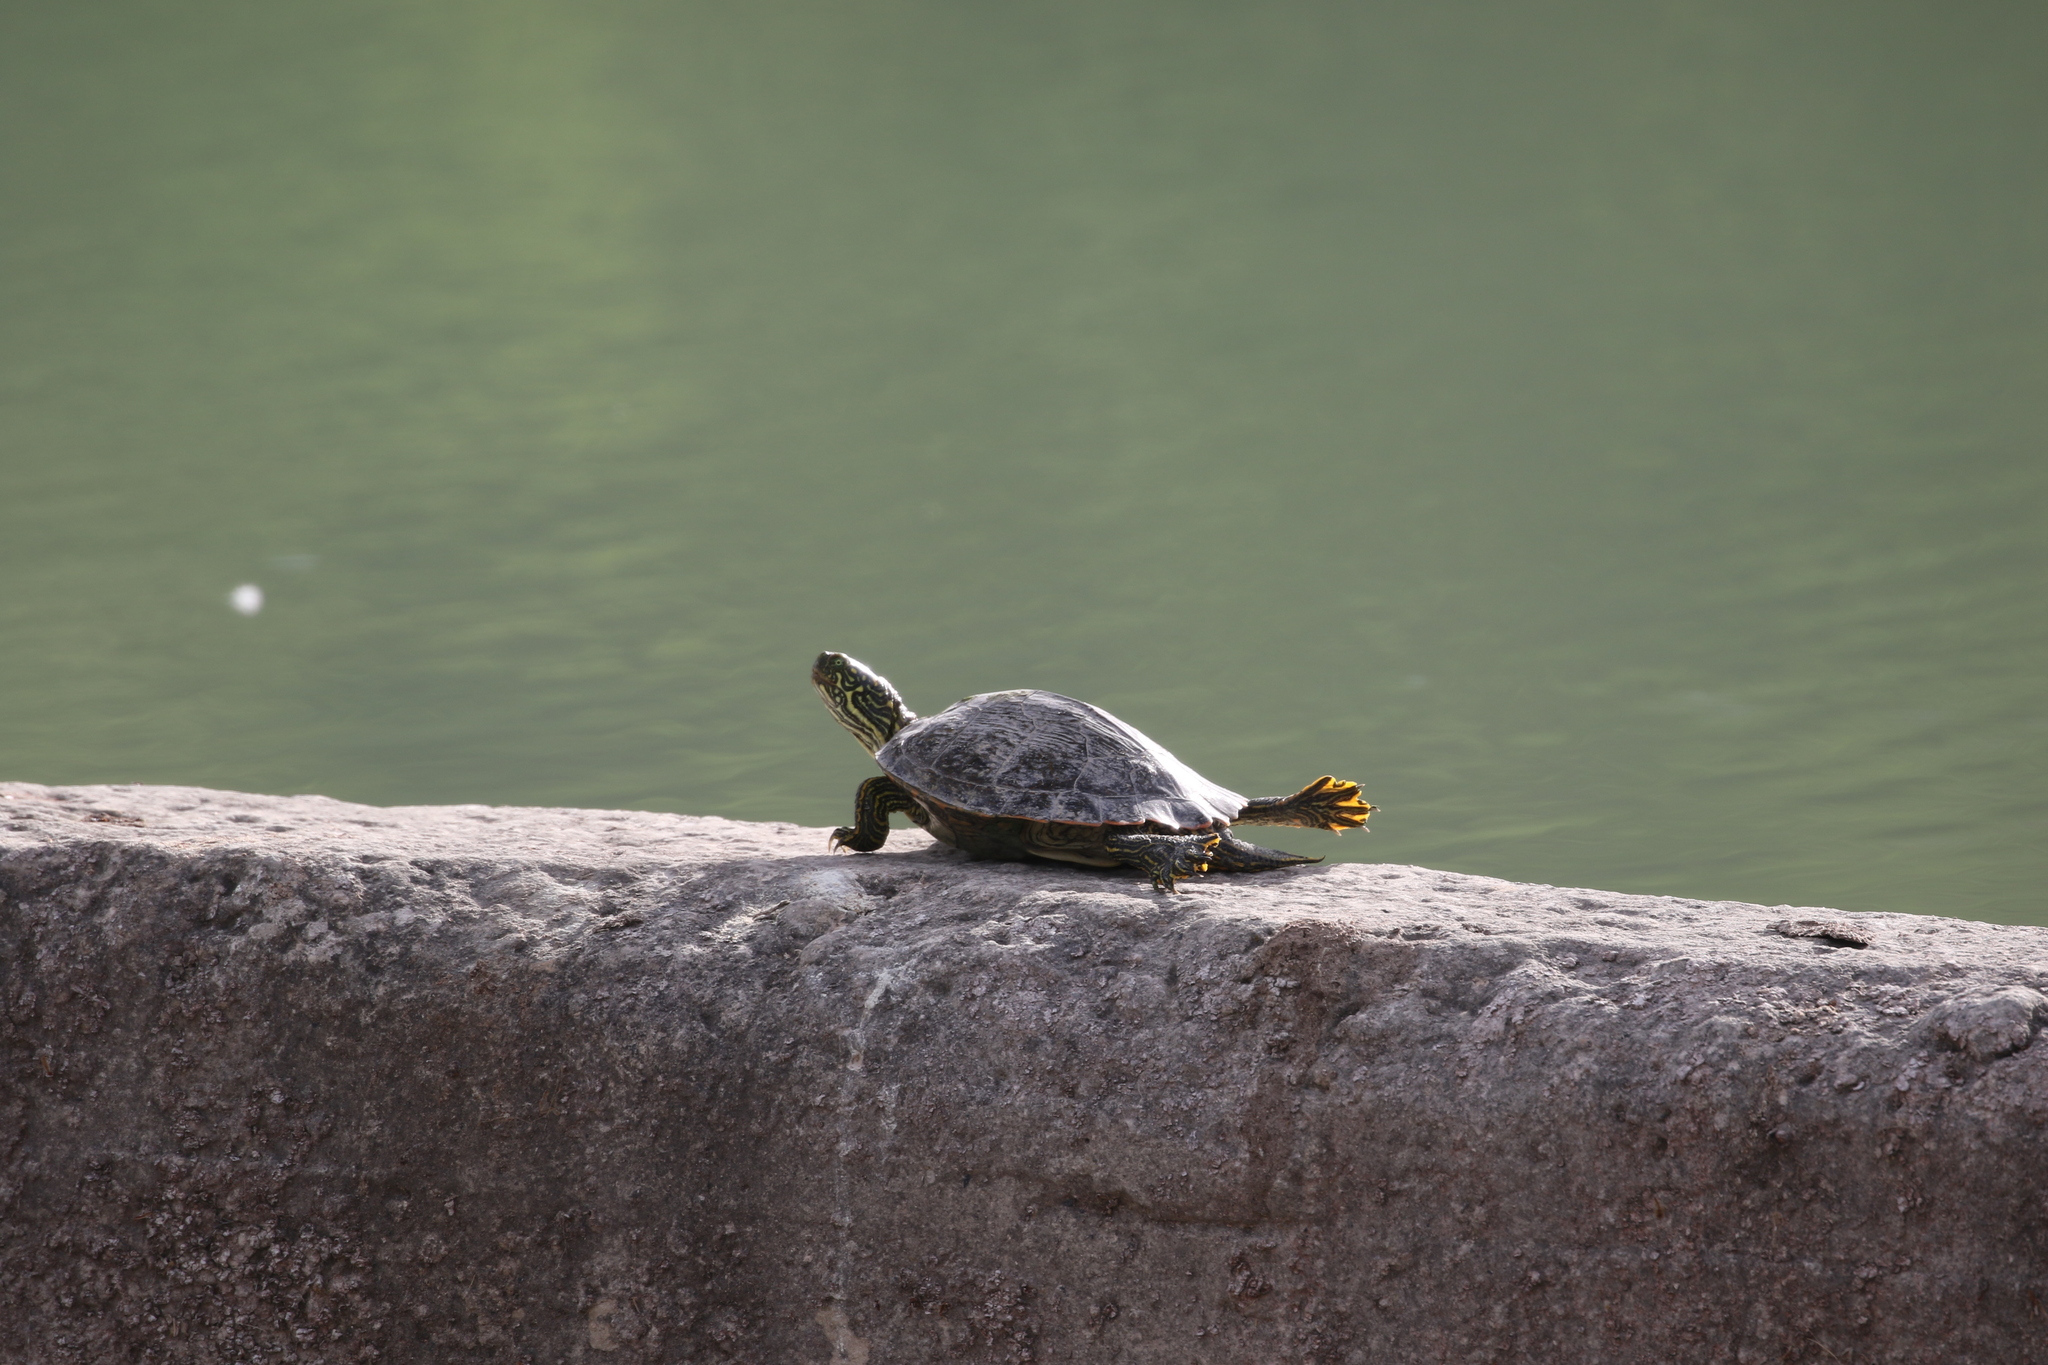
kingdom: Animalia
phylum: Chordata
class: Testudines
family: Emydidae
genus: Pseudemys
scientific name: Pseudemys texana
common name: Texas river cooter
